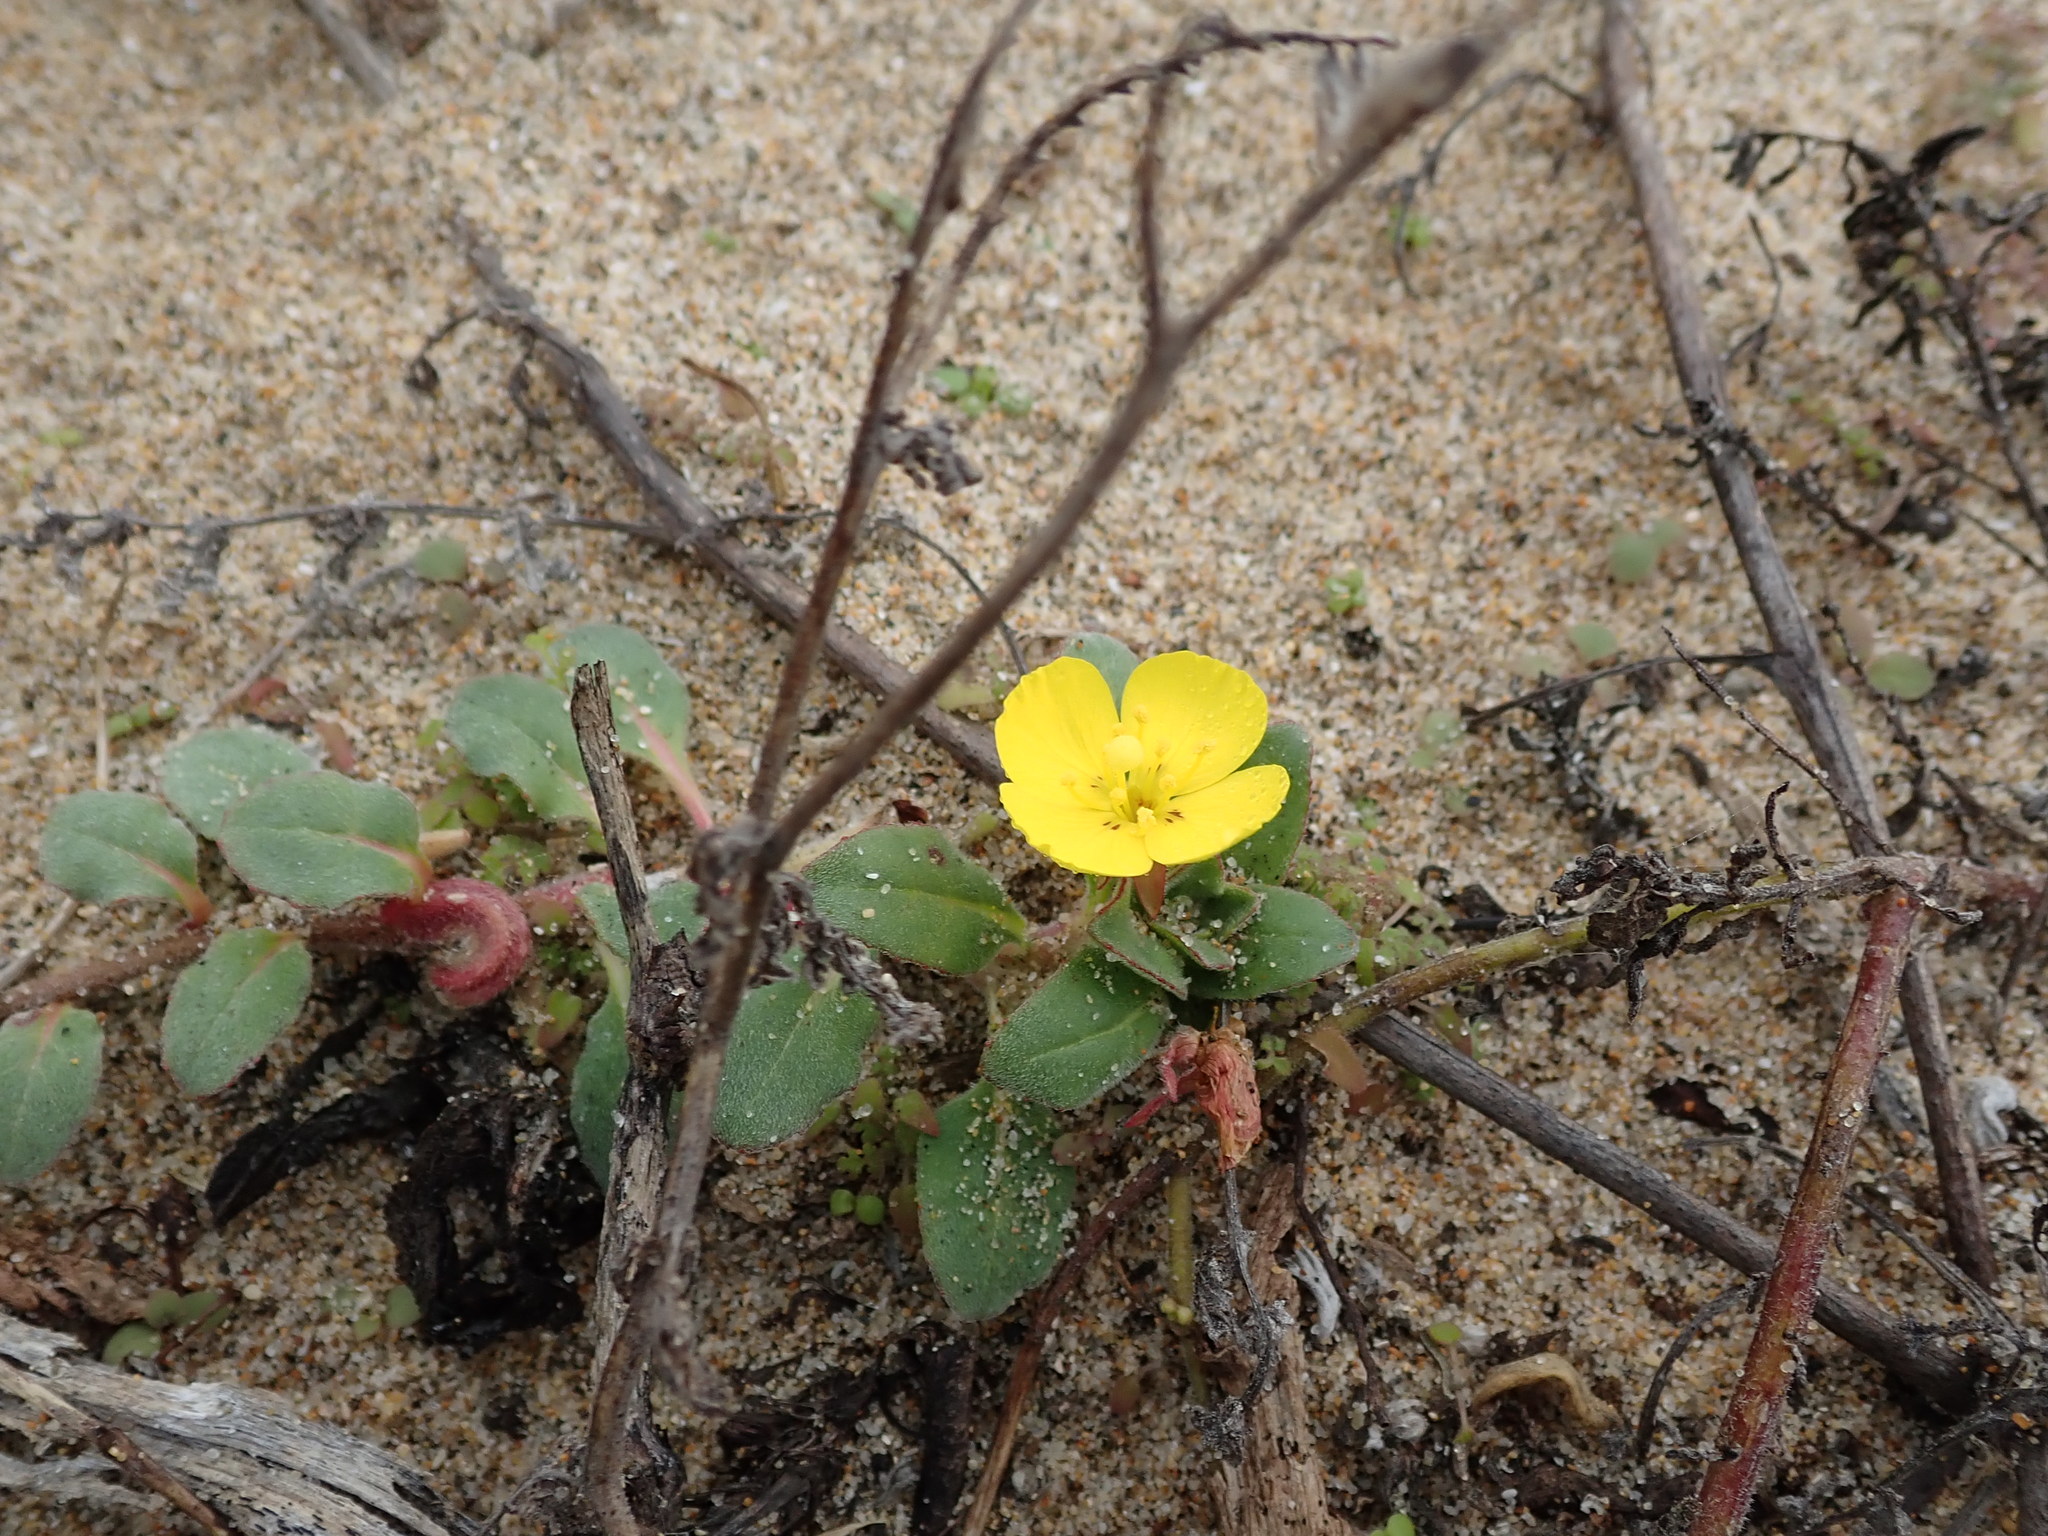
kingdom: Plantae
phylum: Tracheophyta
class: Magnoliopsida
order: Myrtales
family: Onagraceae
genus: Camissoniopsis
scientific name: Camissoniopsis cheiranthifolia
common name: Beach suncup
